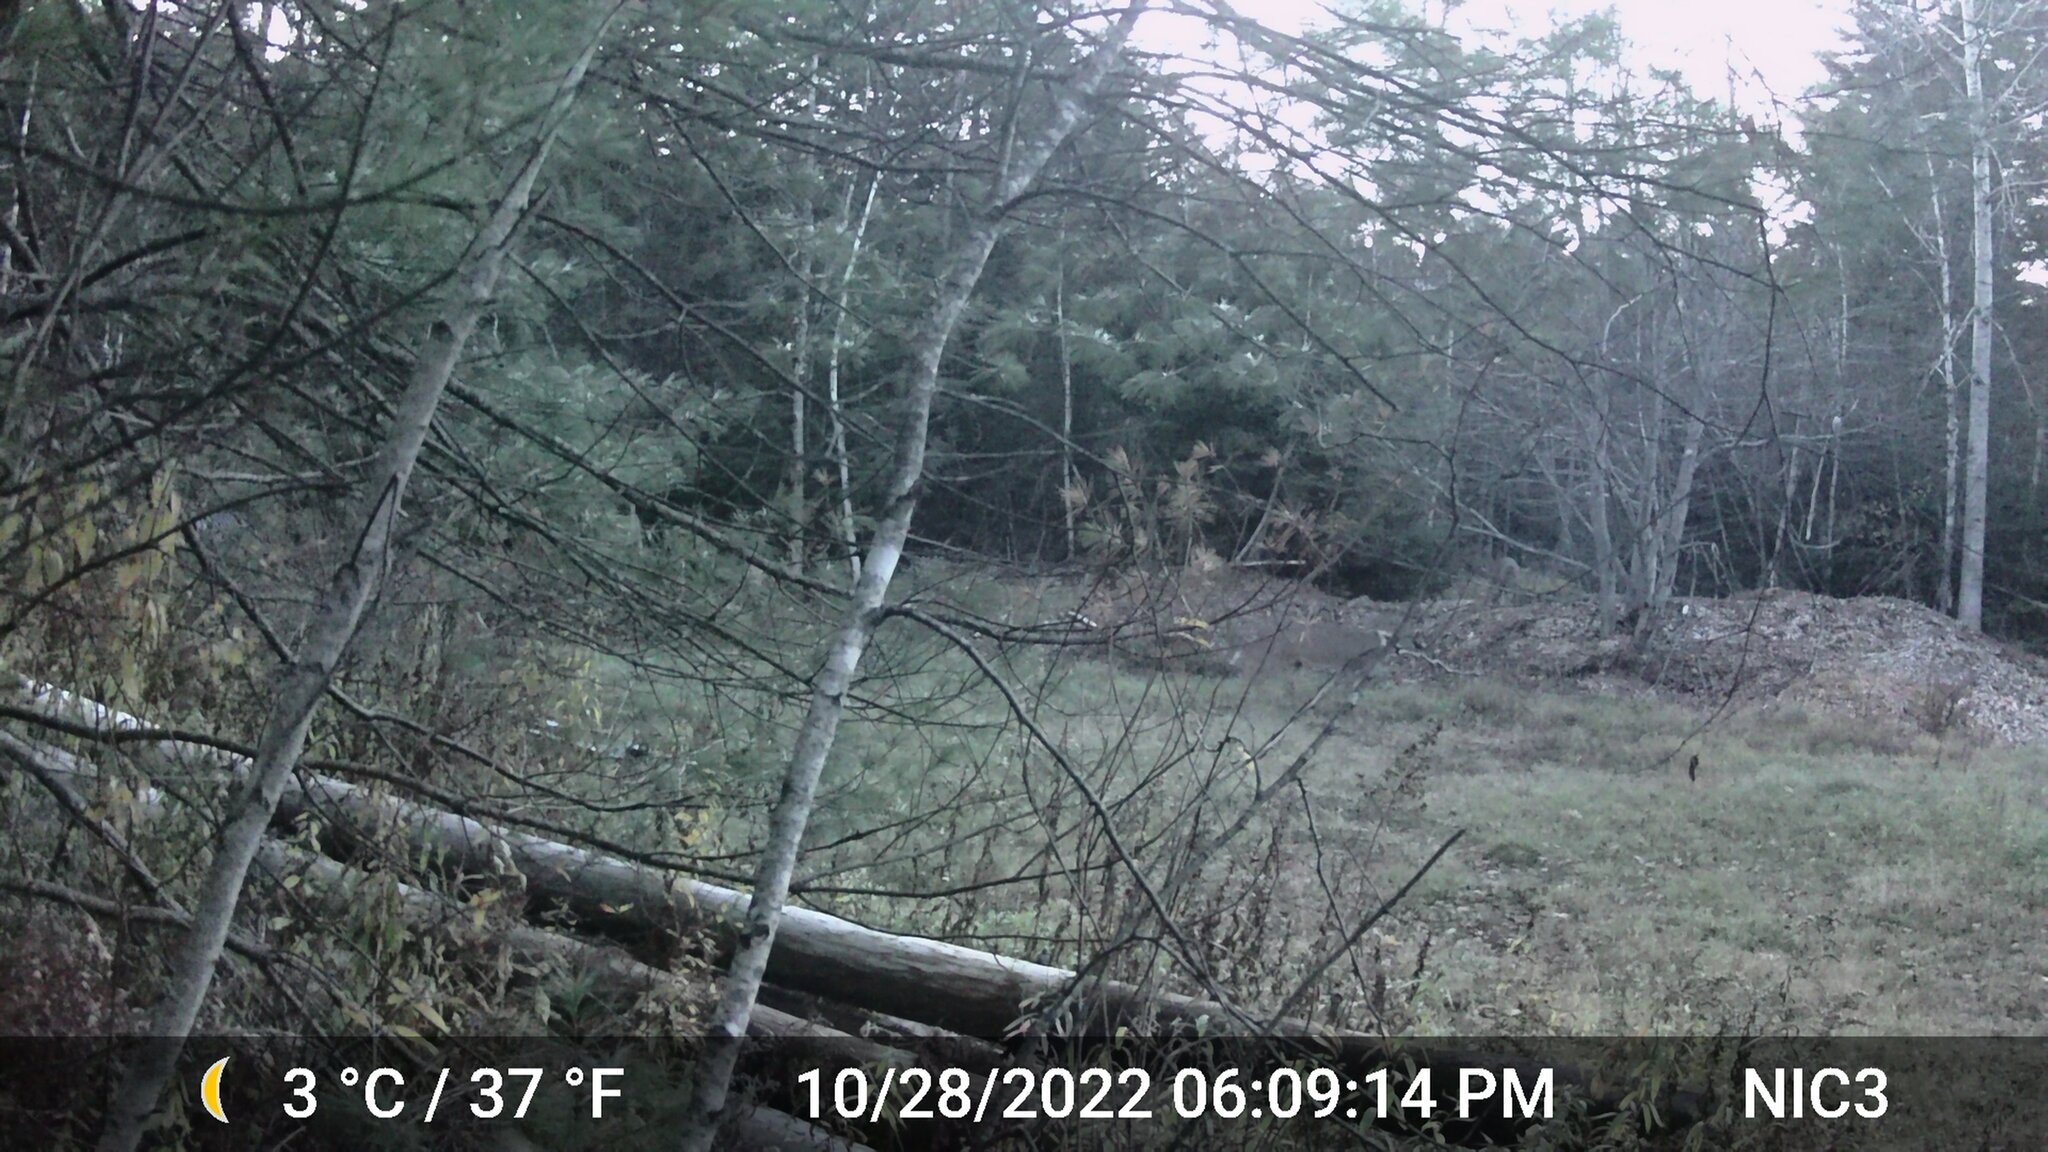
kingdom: Animalia
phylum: Chordata
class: Mammalia
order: Artiodactyla
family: Cervidae
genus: Odocoileus
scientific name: Odocoileus virginianus
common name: White-tailed deer
